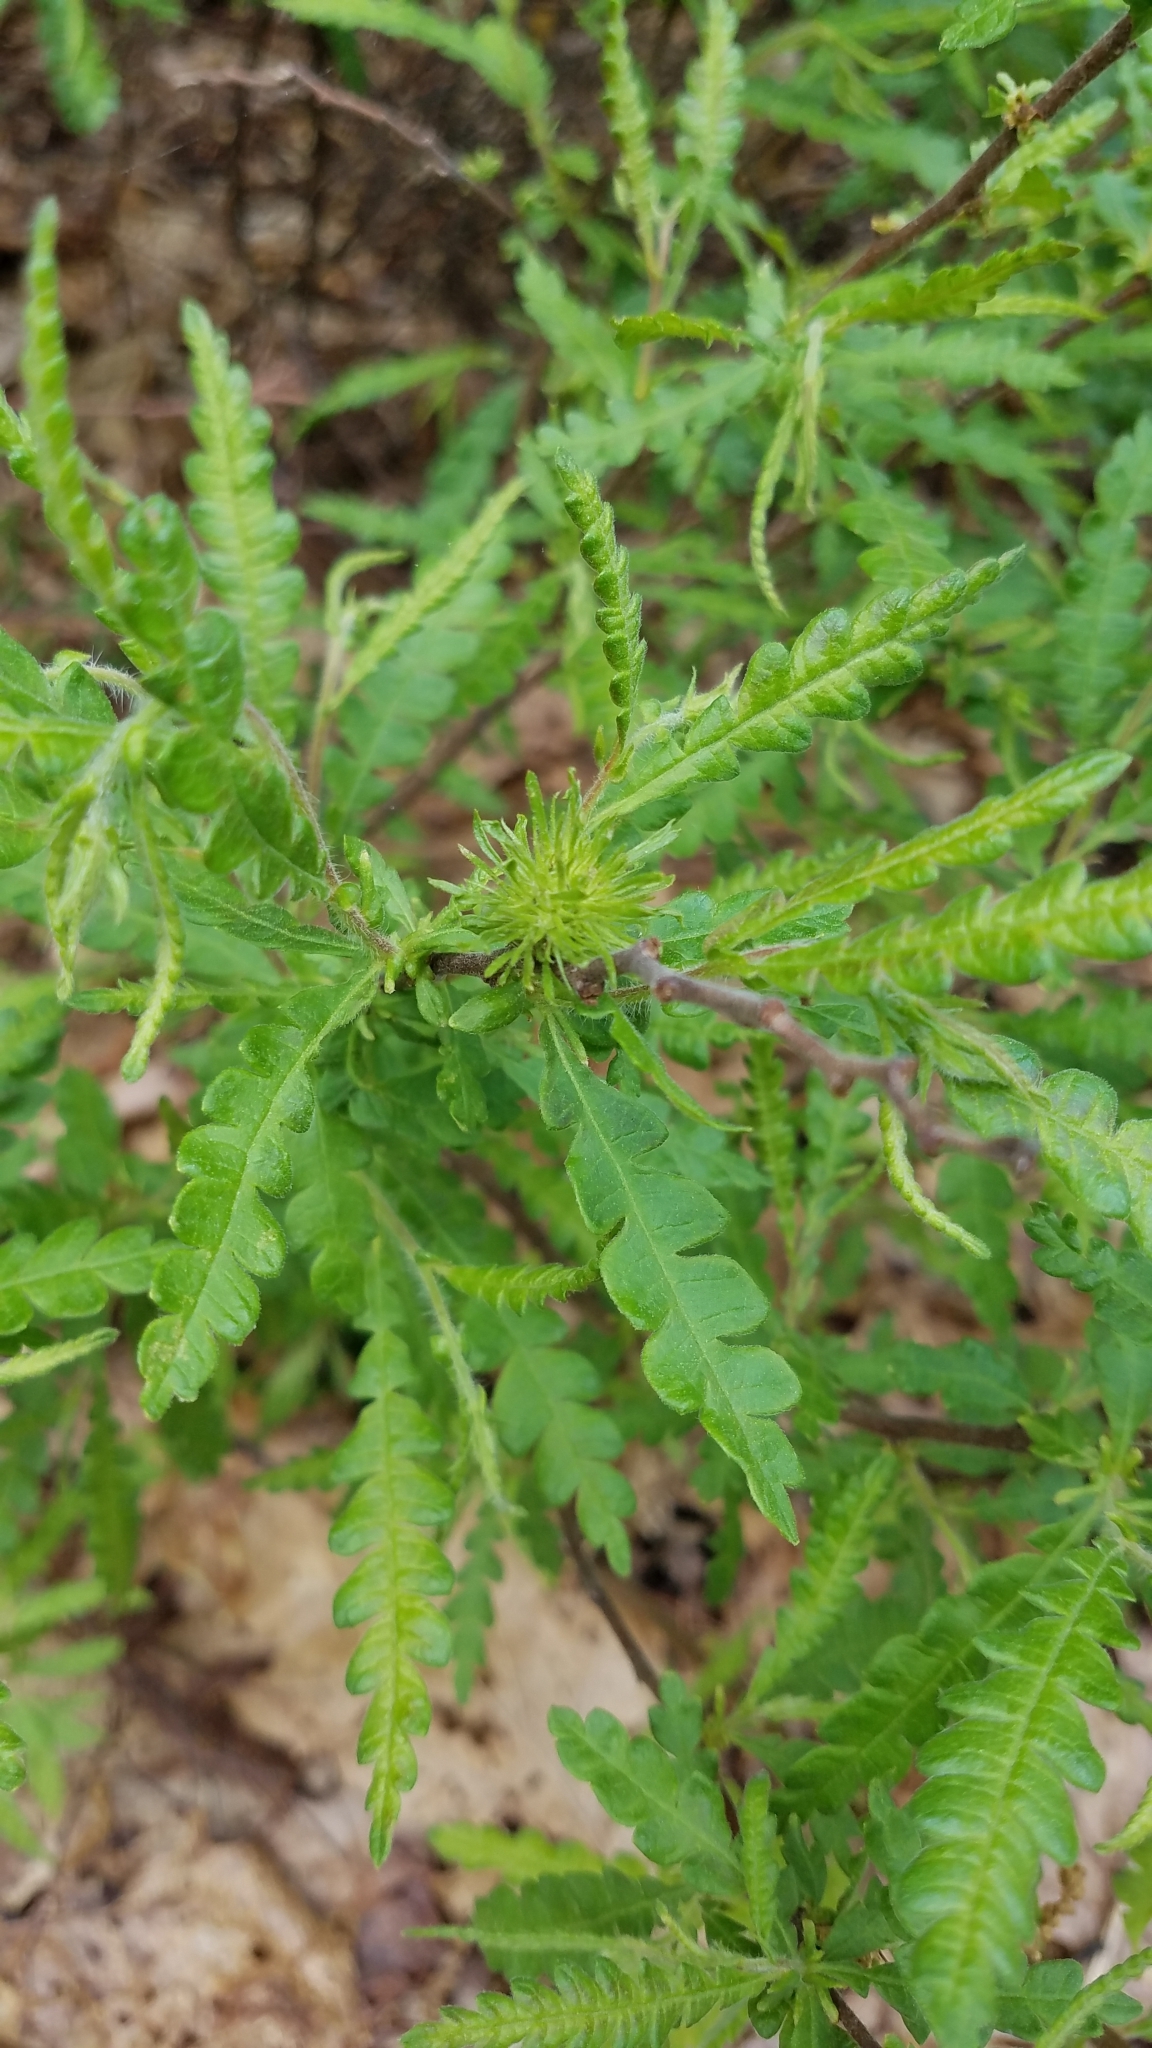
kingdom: Plantae
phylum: Tracheophyta
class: Magnoliopsida
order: Fagales
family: Myricaceae
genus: Comptonia
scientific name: Comptonia peregrina
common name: Sweet-fern
